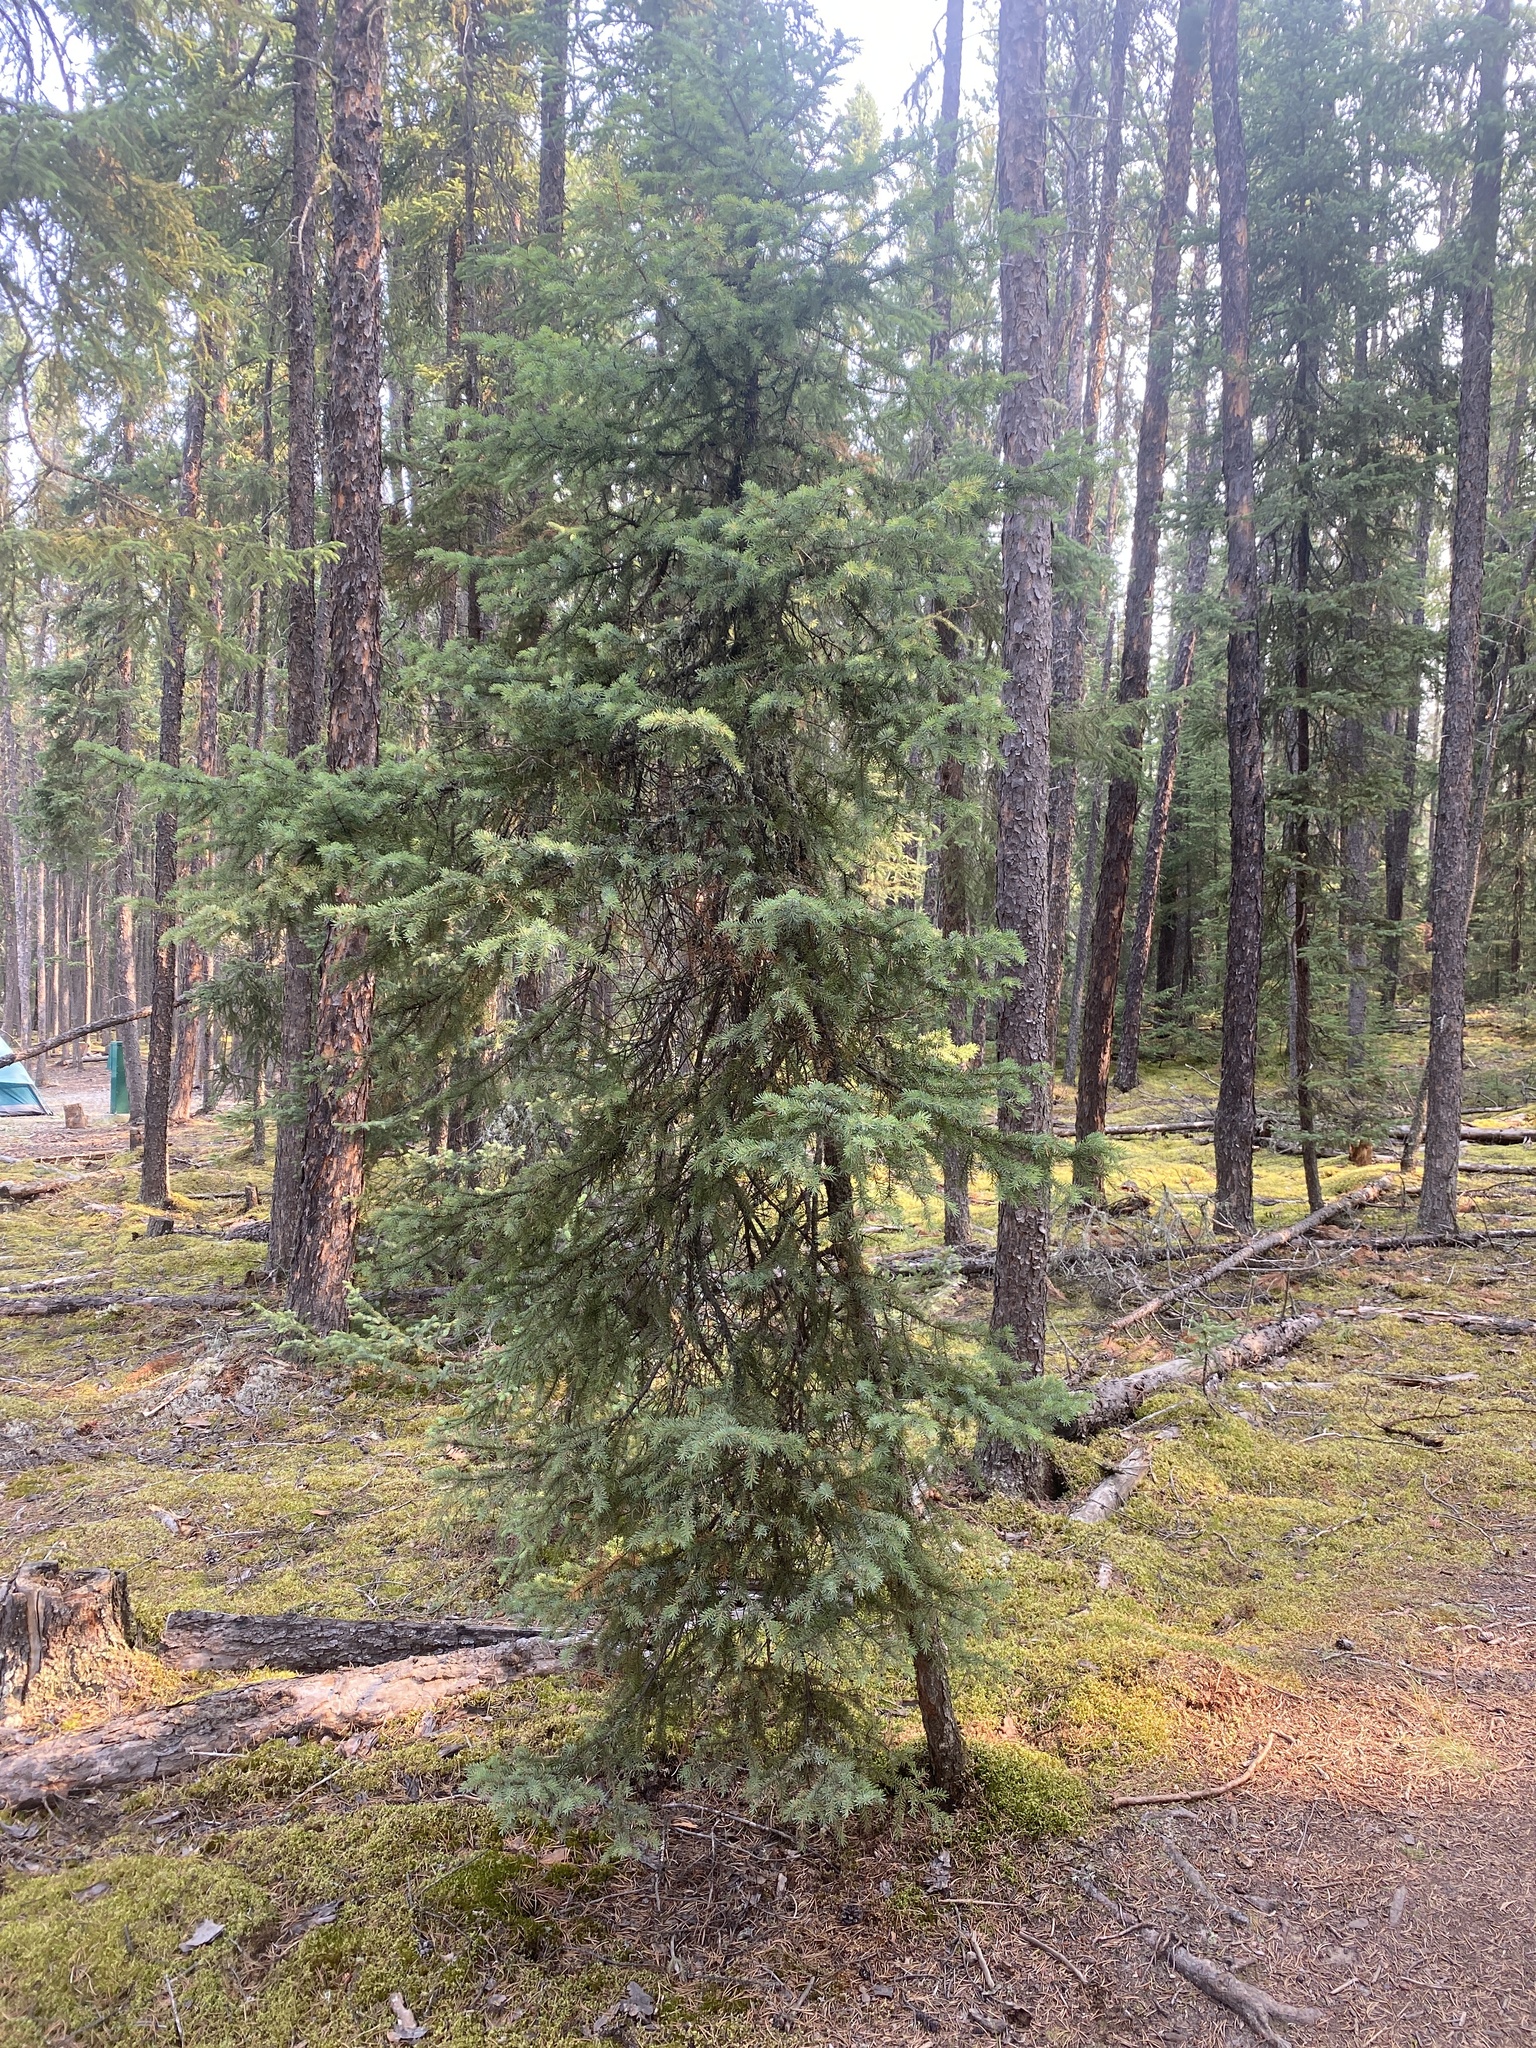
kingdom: Plantae
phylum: Tracheophyta
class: Pinopsida
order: Pinales
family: Pinaceae
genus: Picea
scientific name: Picea mariana
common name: Black spruce
